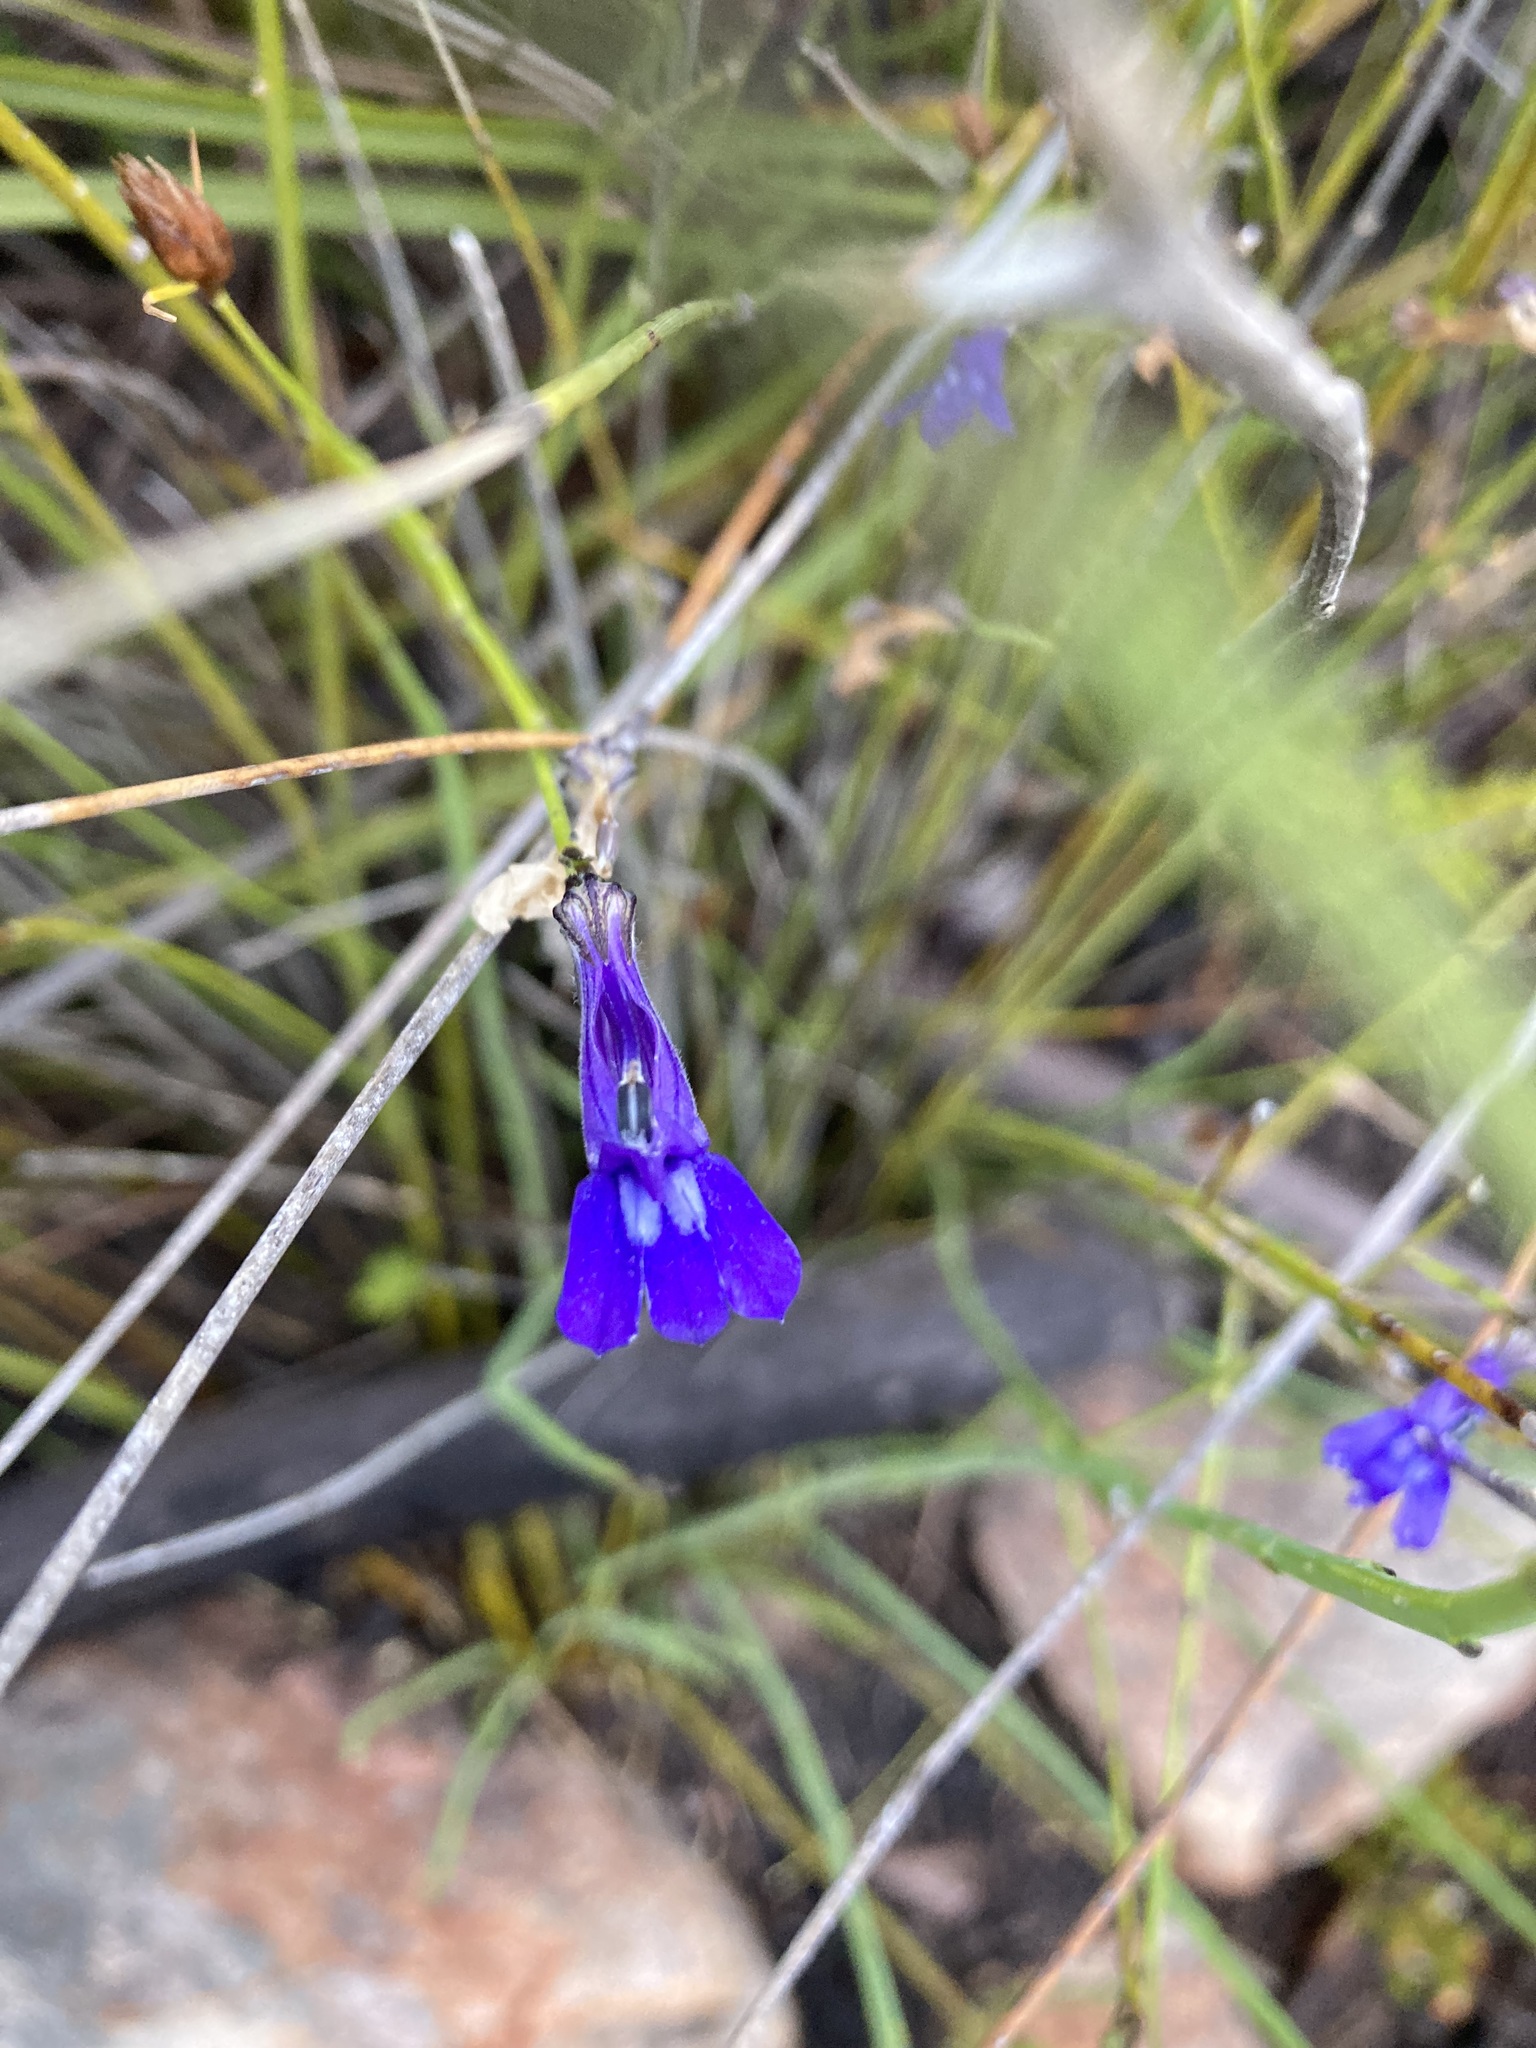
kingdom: Plantae
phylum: Tracheophyta
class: Magnoliopsida
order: Asterales
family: Campanulaceae
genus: Lobelia
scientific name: Lobelia linearis
